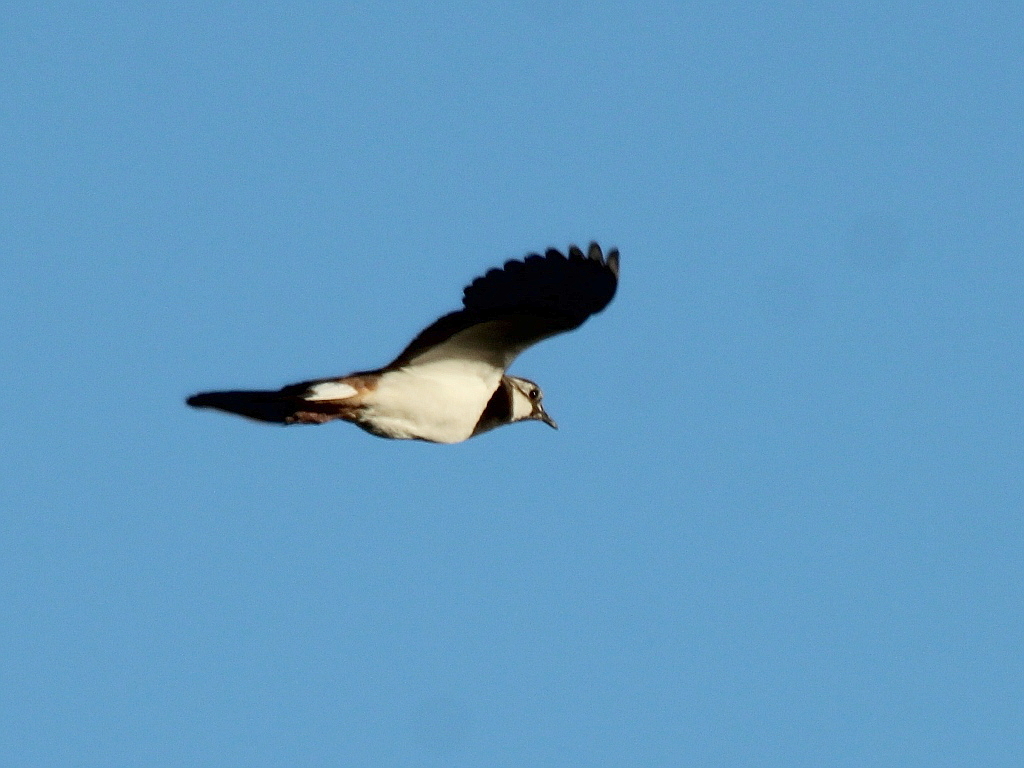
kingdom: Animalia
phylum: Chordata
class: Aves
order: Charadriiformes
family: Charadriidae
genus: Vanellus
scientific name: Vanellus vanellus
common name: Northern lapwing
